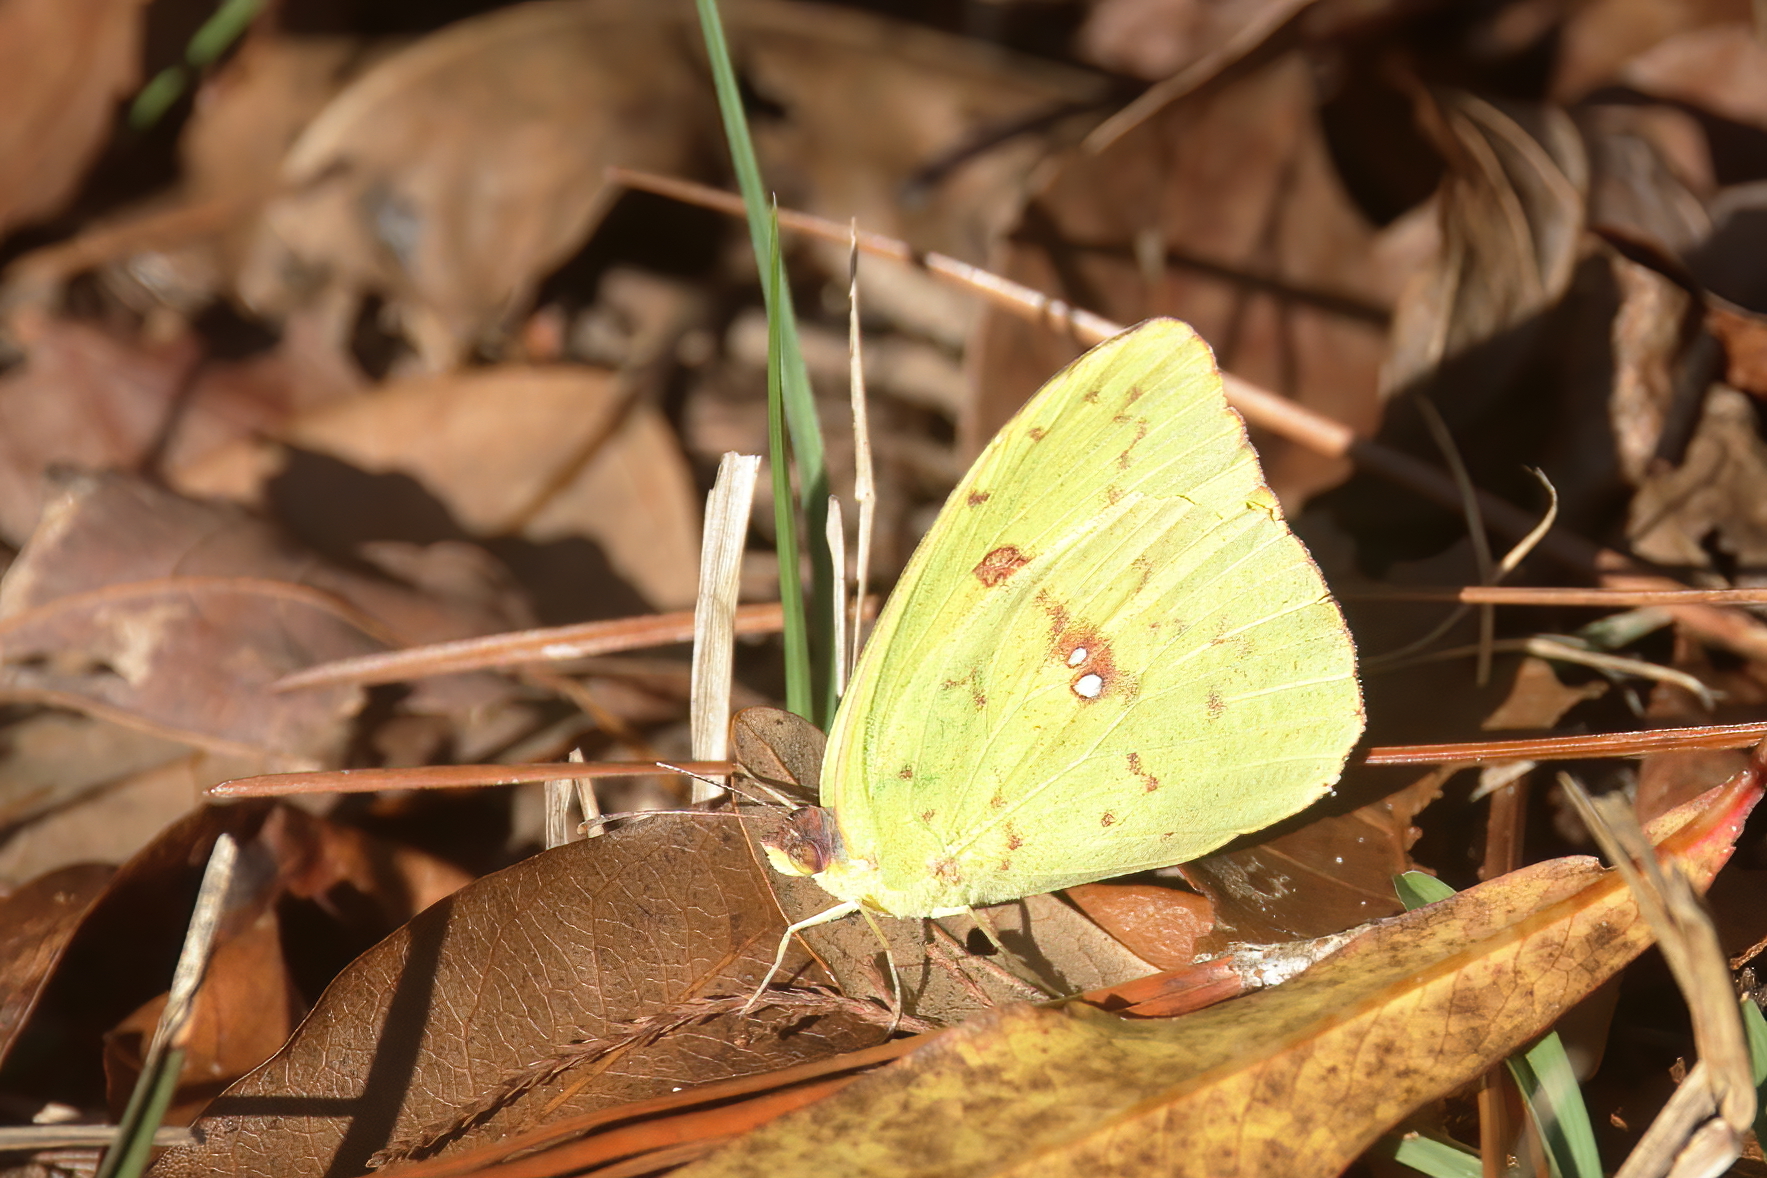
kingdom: Animalia
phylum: Arthropoda
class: Insecta
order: Lepidoptera
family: Pieridae
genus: Phoebis
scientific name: Phoebis sennae
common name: Cloudless sulphur
